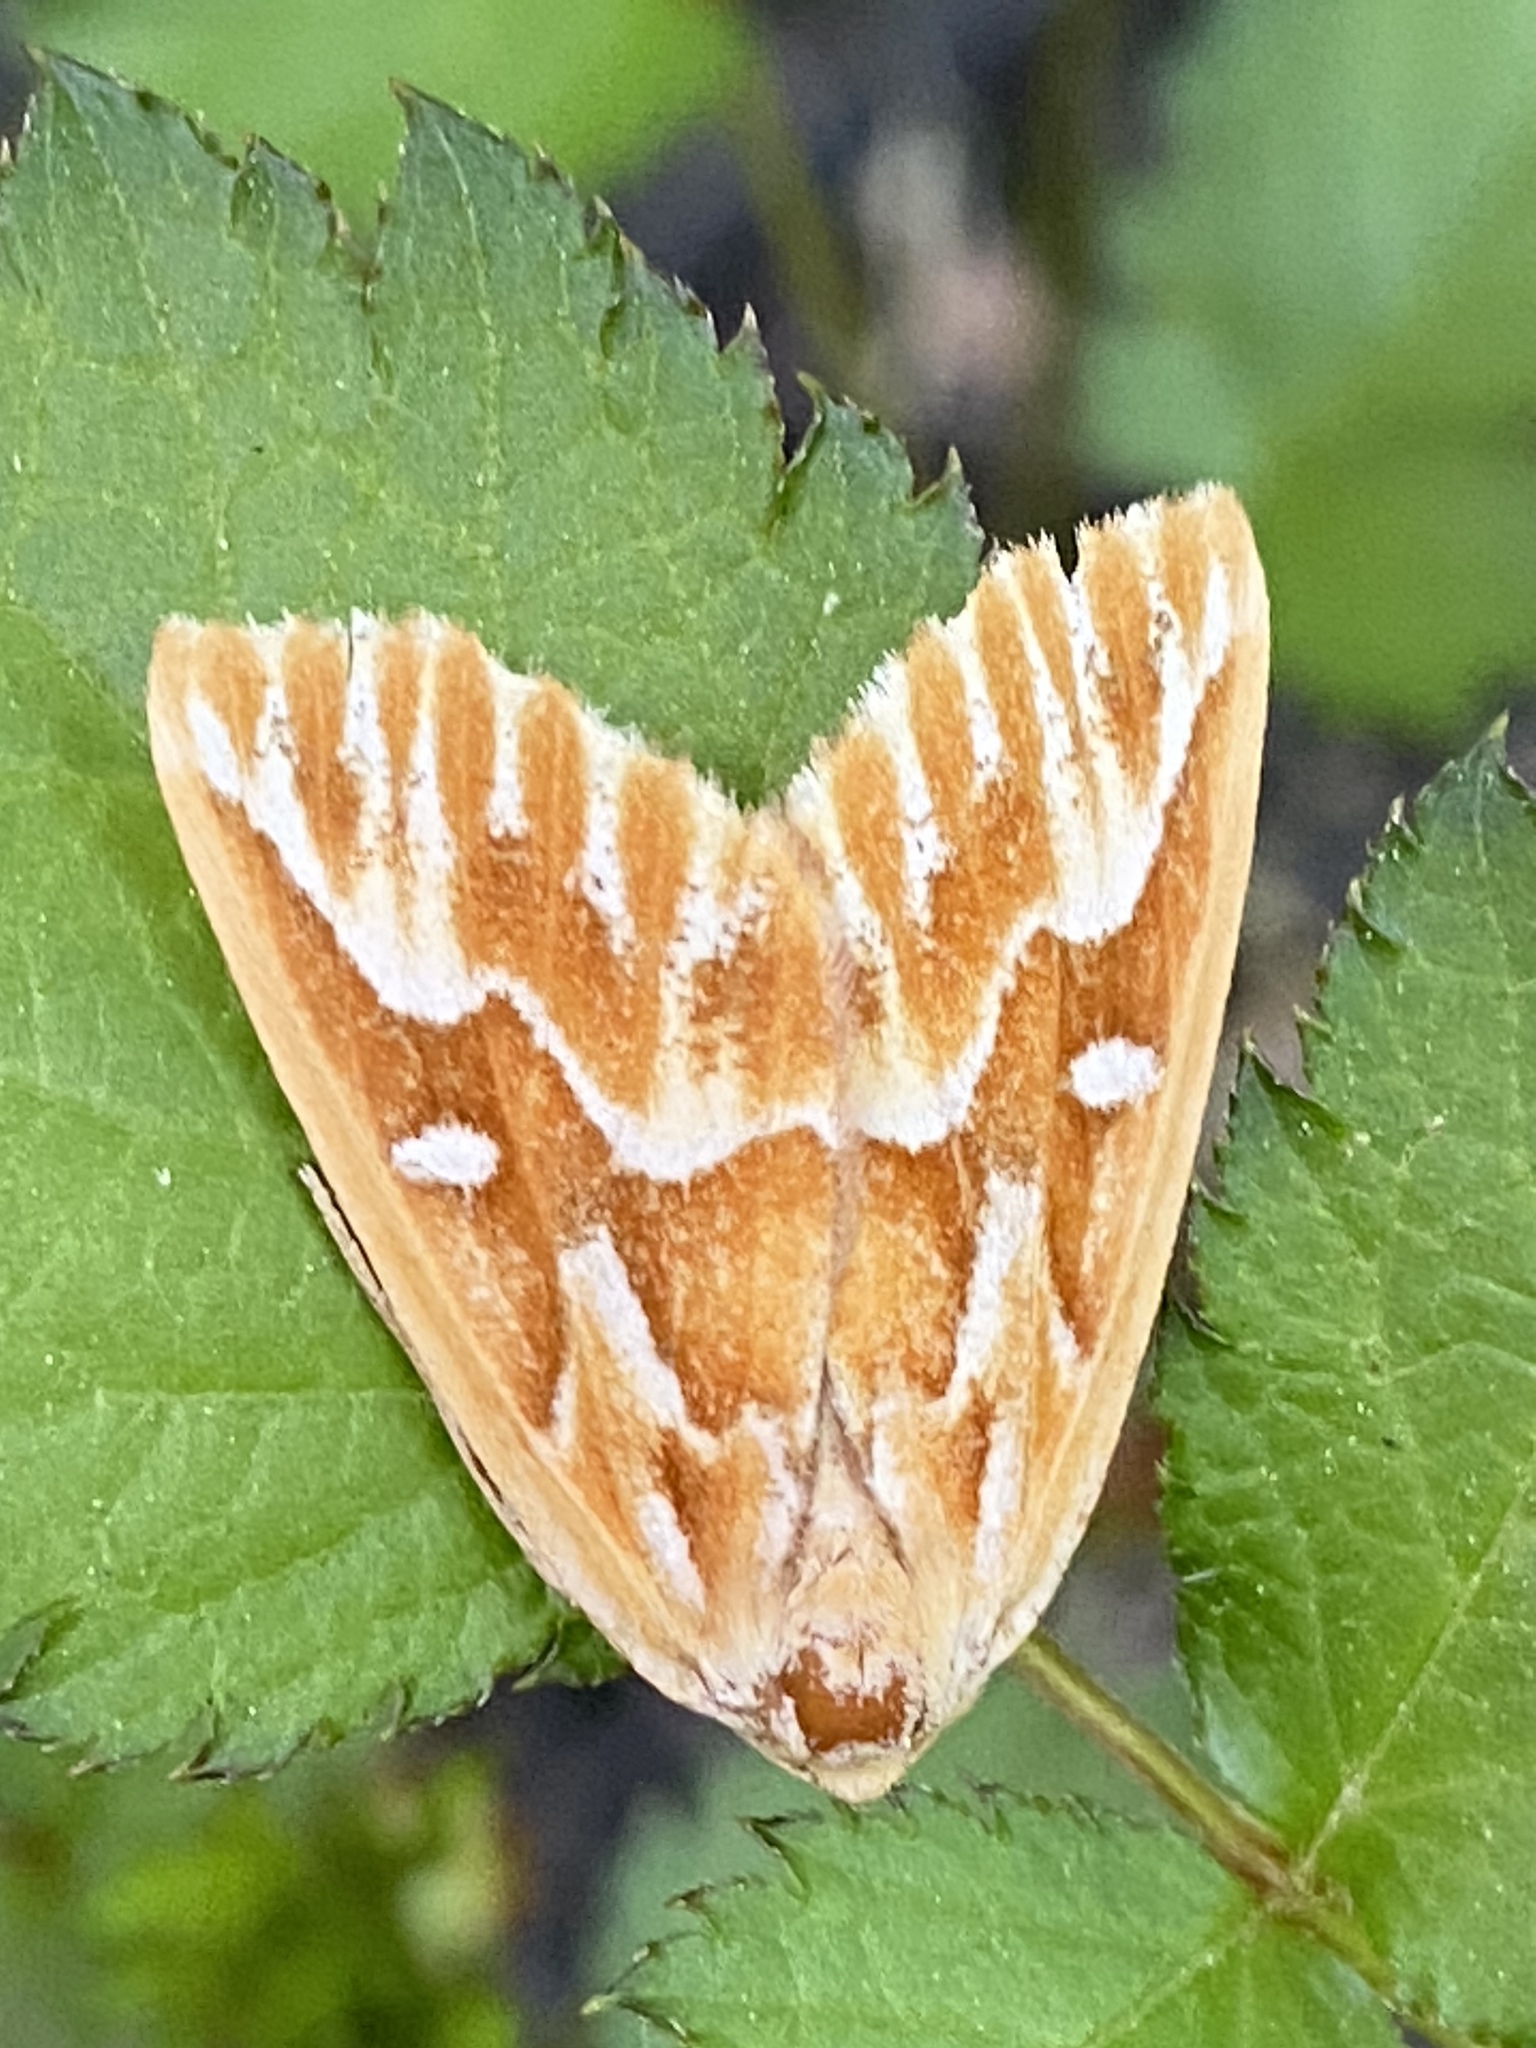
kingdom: Animalia
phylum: Arthropoda
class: Insecta
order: Lepidoptera
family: Geometridae
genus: Caripeta
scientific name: Caripeta piniata
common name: Northern pine looper moth
